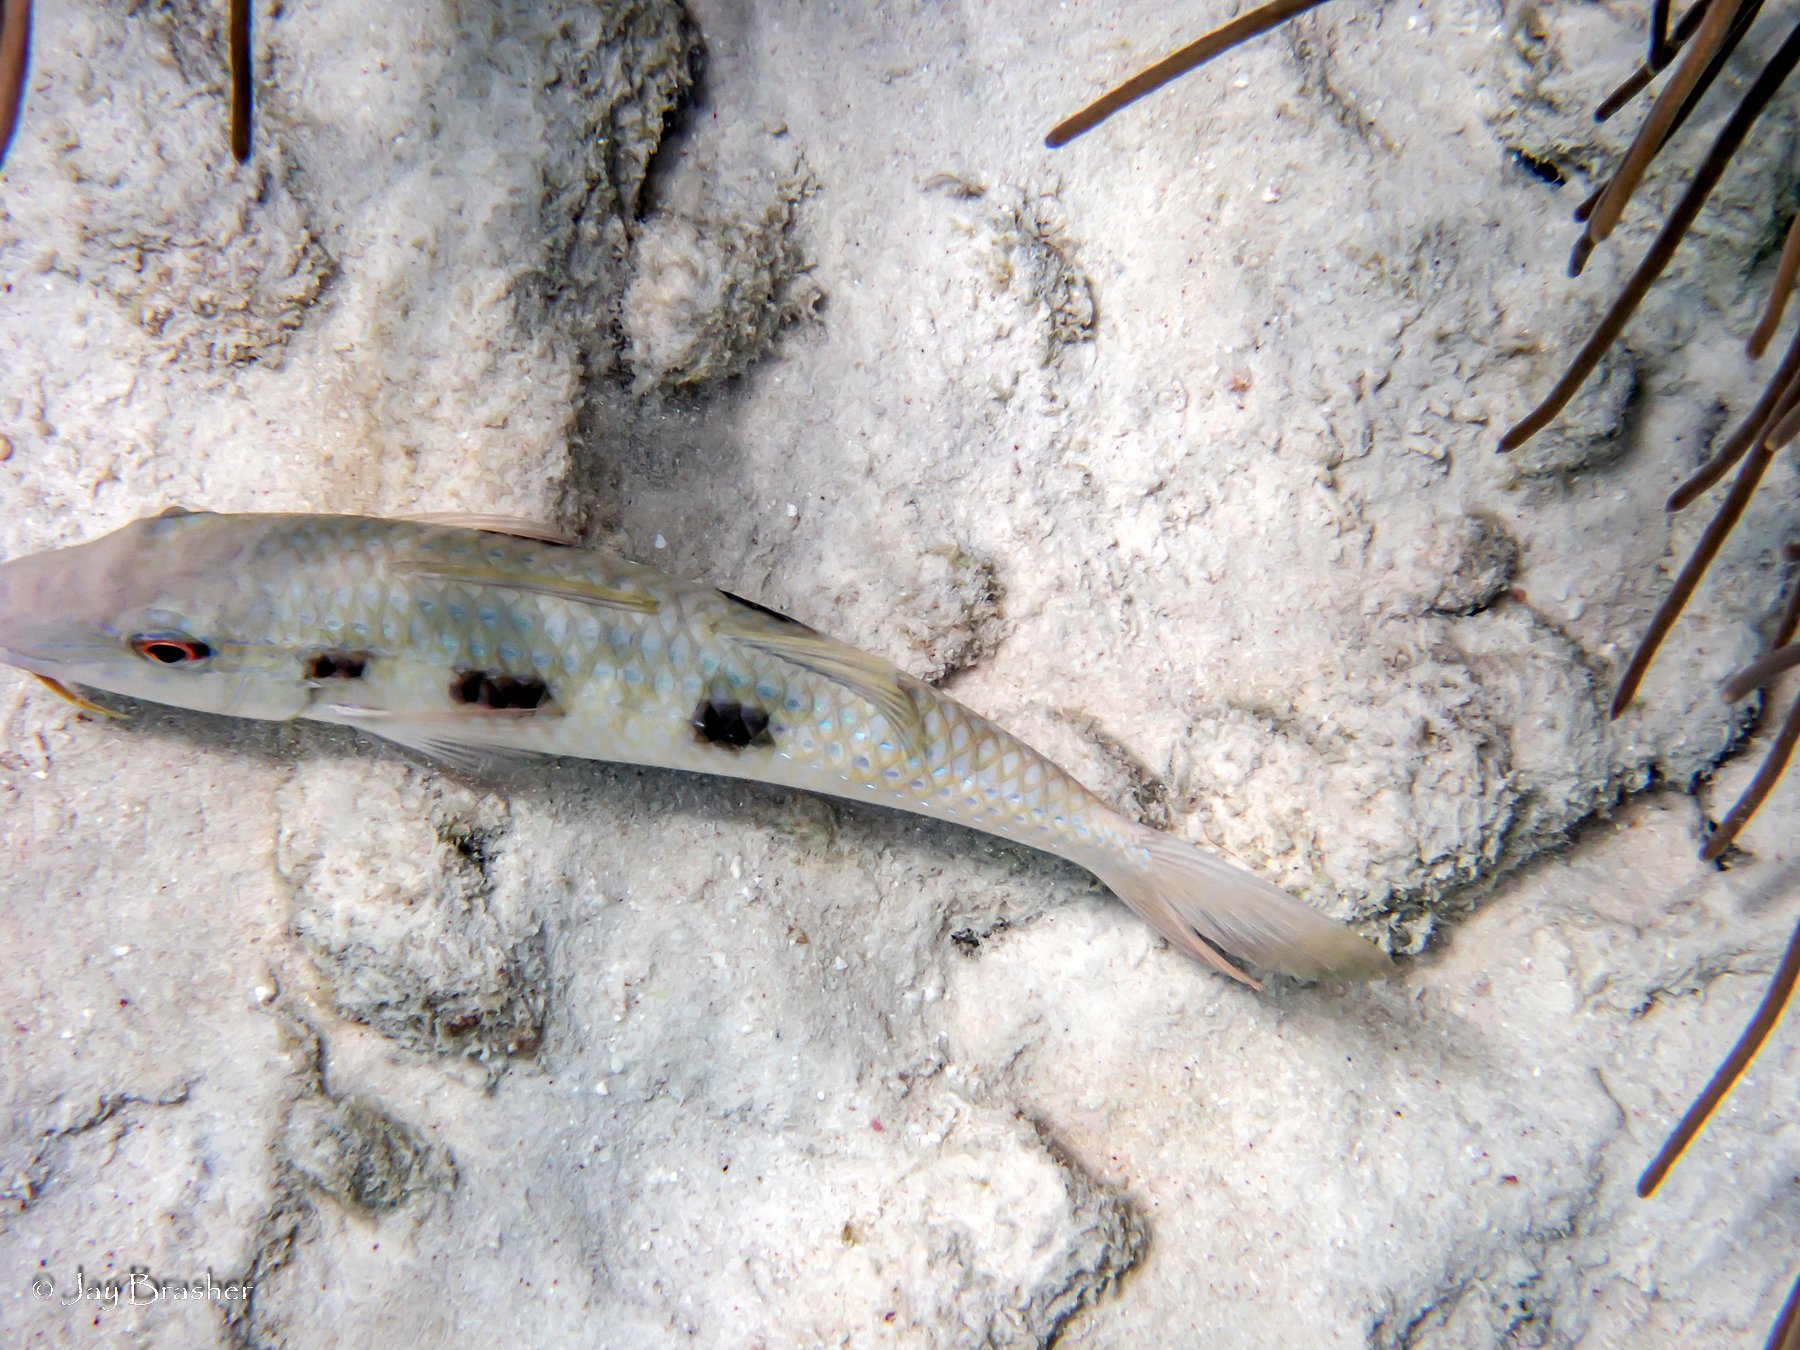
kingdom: Animalia
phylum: Chordata
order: Perciformes
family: Mullidae
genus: Pseudupeneus
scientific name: Pseudupeneus maculatus
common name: Spotted goatfish
